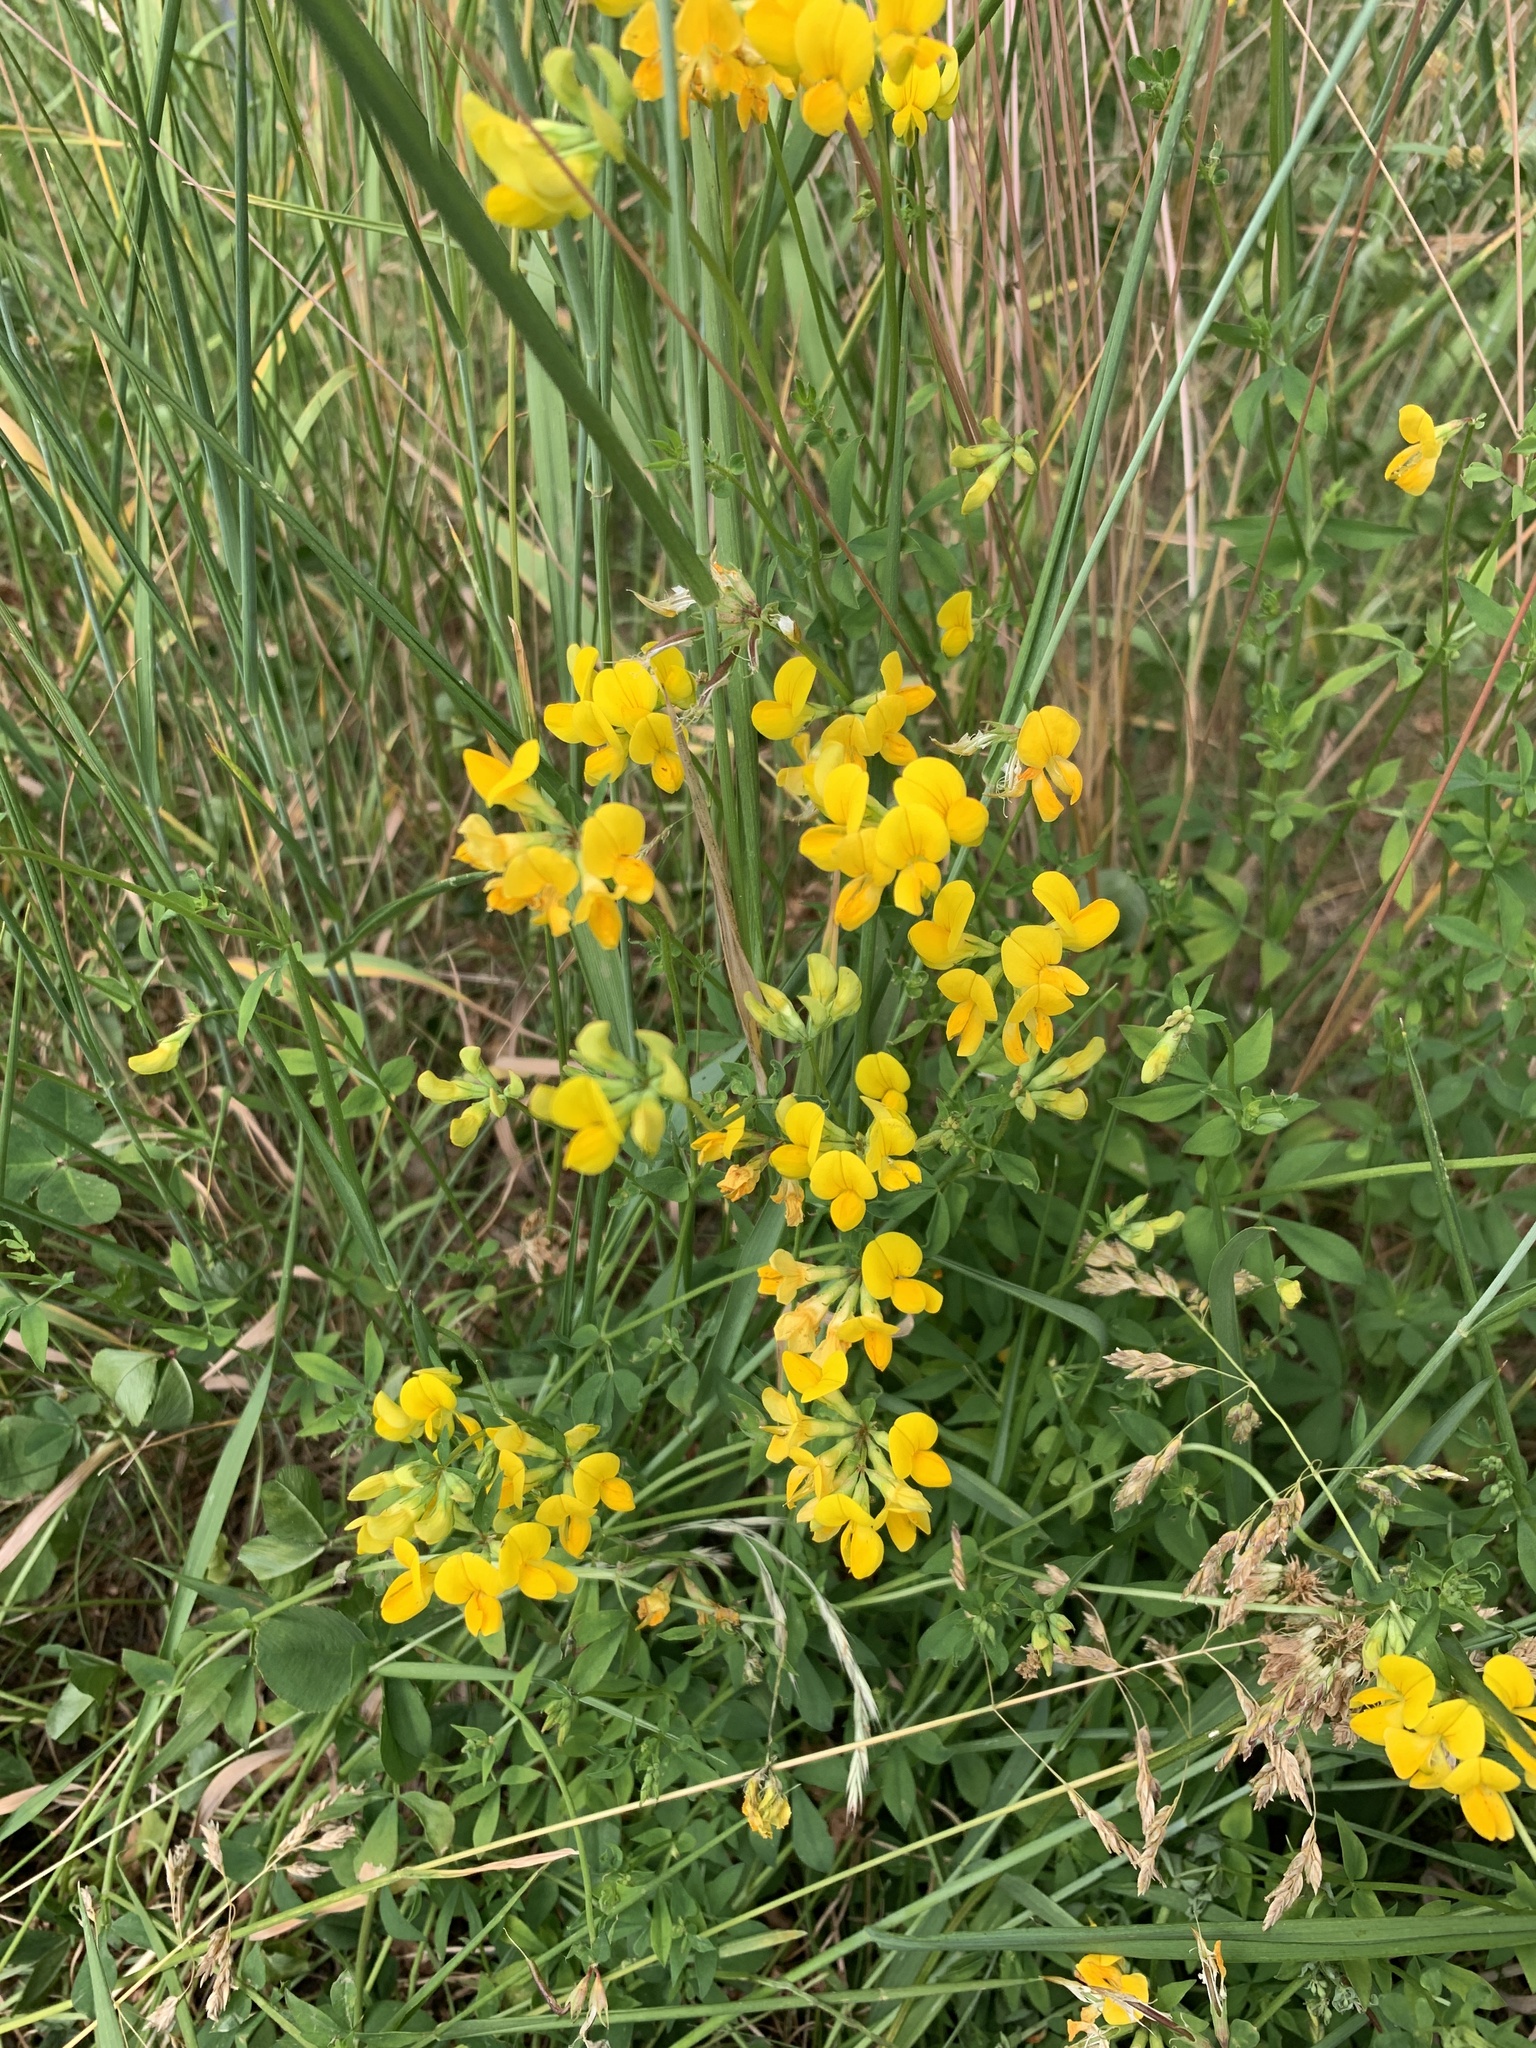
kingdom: Plantae
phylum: Tracheophyta
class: Magnoliopsida
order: Fabales
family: Fabaceae
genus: Lotus
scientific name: Lotus corniculatus
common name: Common bird's-foot-trefoil
